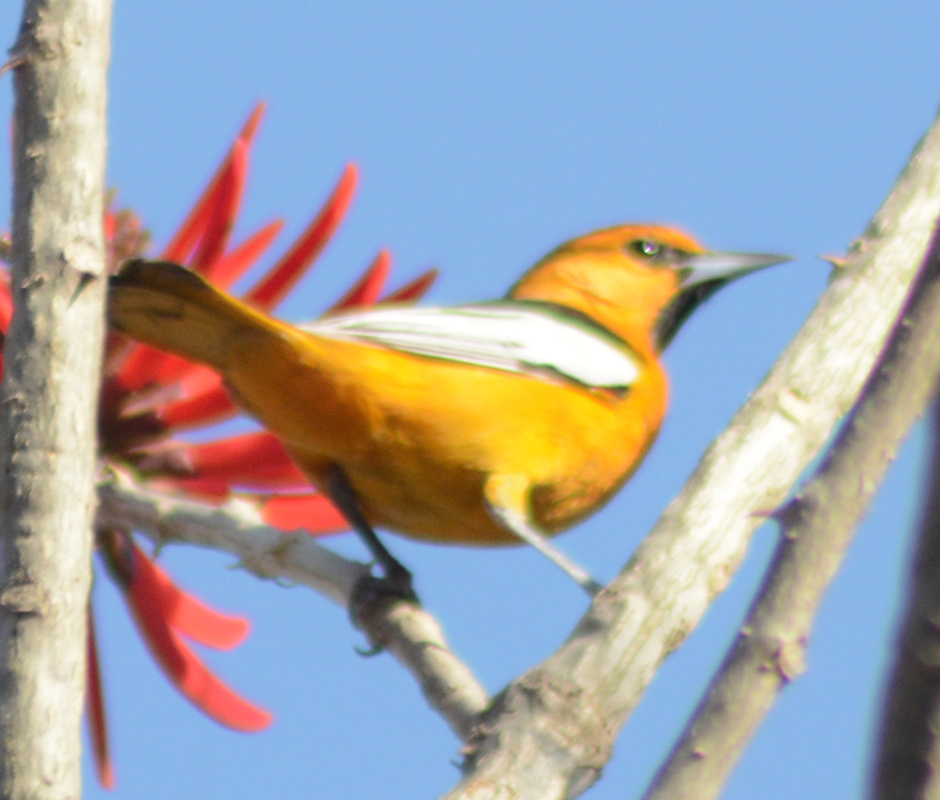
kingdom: Animalia
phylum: Chordata
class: Aves
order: Passeriformes
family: Icteridae
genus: Icterus
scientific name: Icterus bullockii
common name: Bullock's oriole
